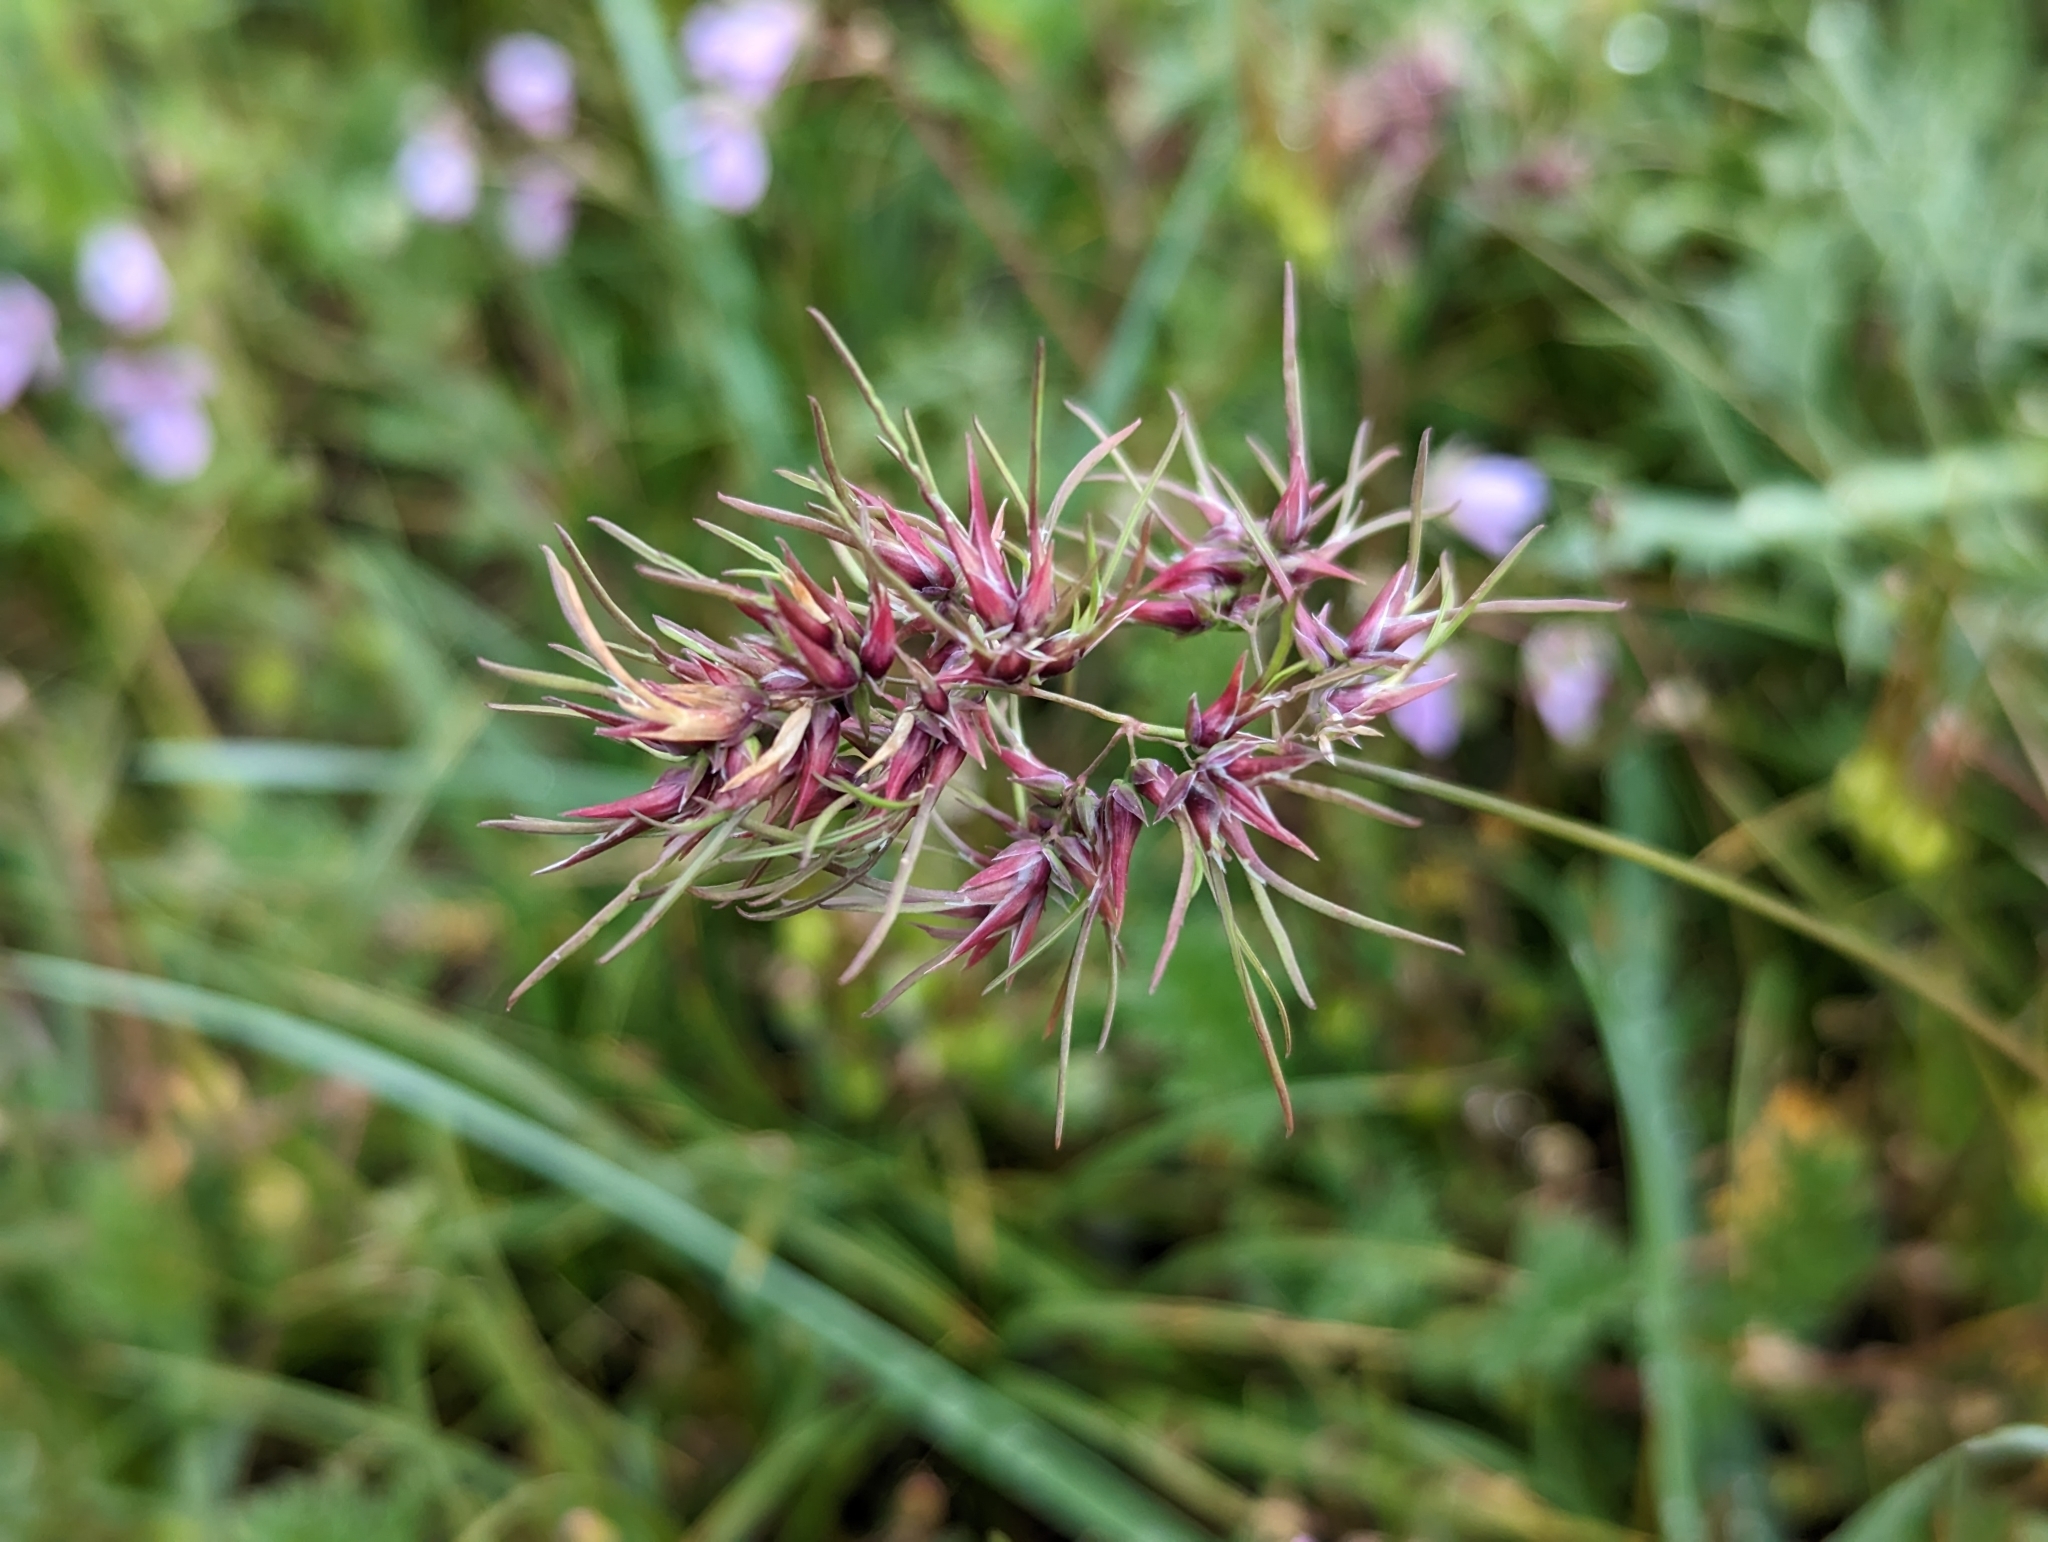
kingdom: Plantae
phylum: Tracheophyta
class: Liliopsida
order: Poales
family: Poaceae
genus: Poa
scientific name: Poa bulbosa
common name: Bulbous bluegrass
